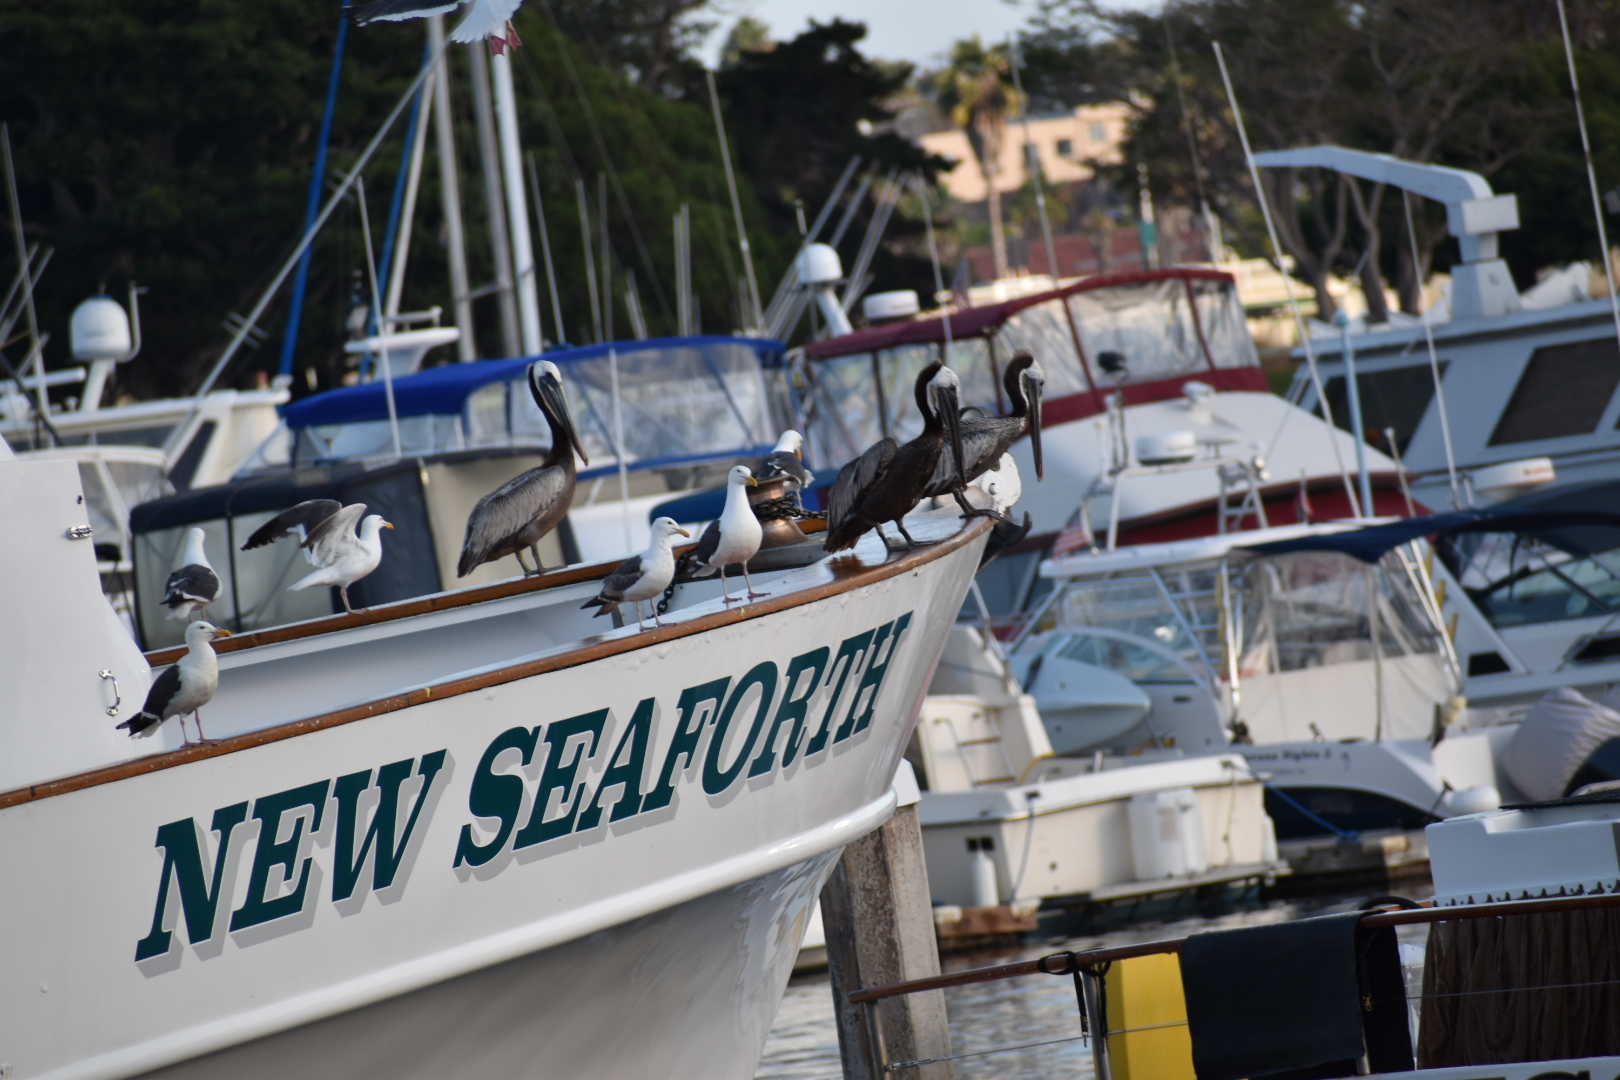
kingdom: Animalia
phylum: Chordata
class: Aves
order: Pelecaniformes
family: Pelecanidae
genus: Pelecanus
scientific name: Pelecanus occidentalis
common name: Brown pelican
